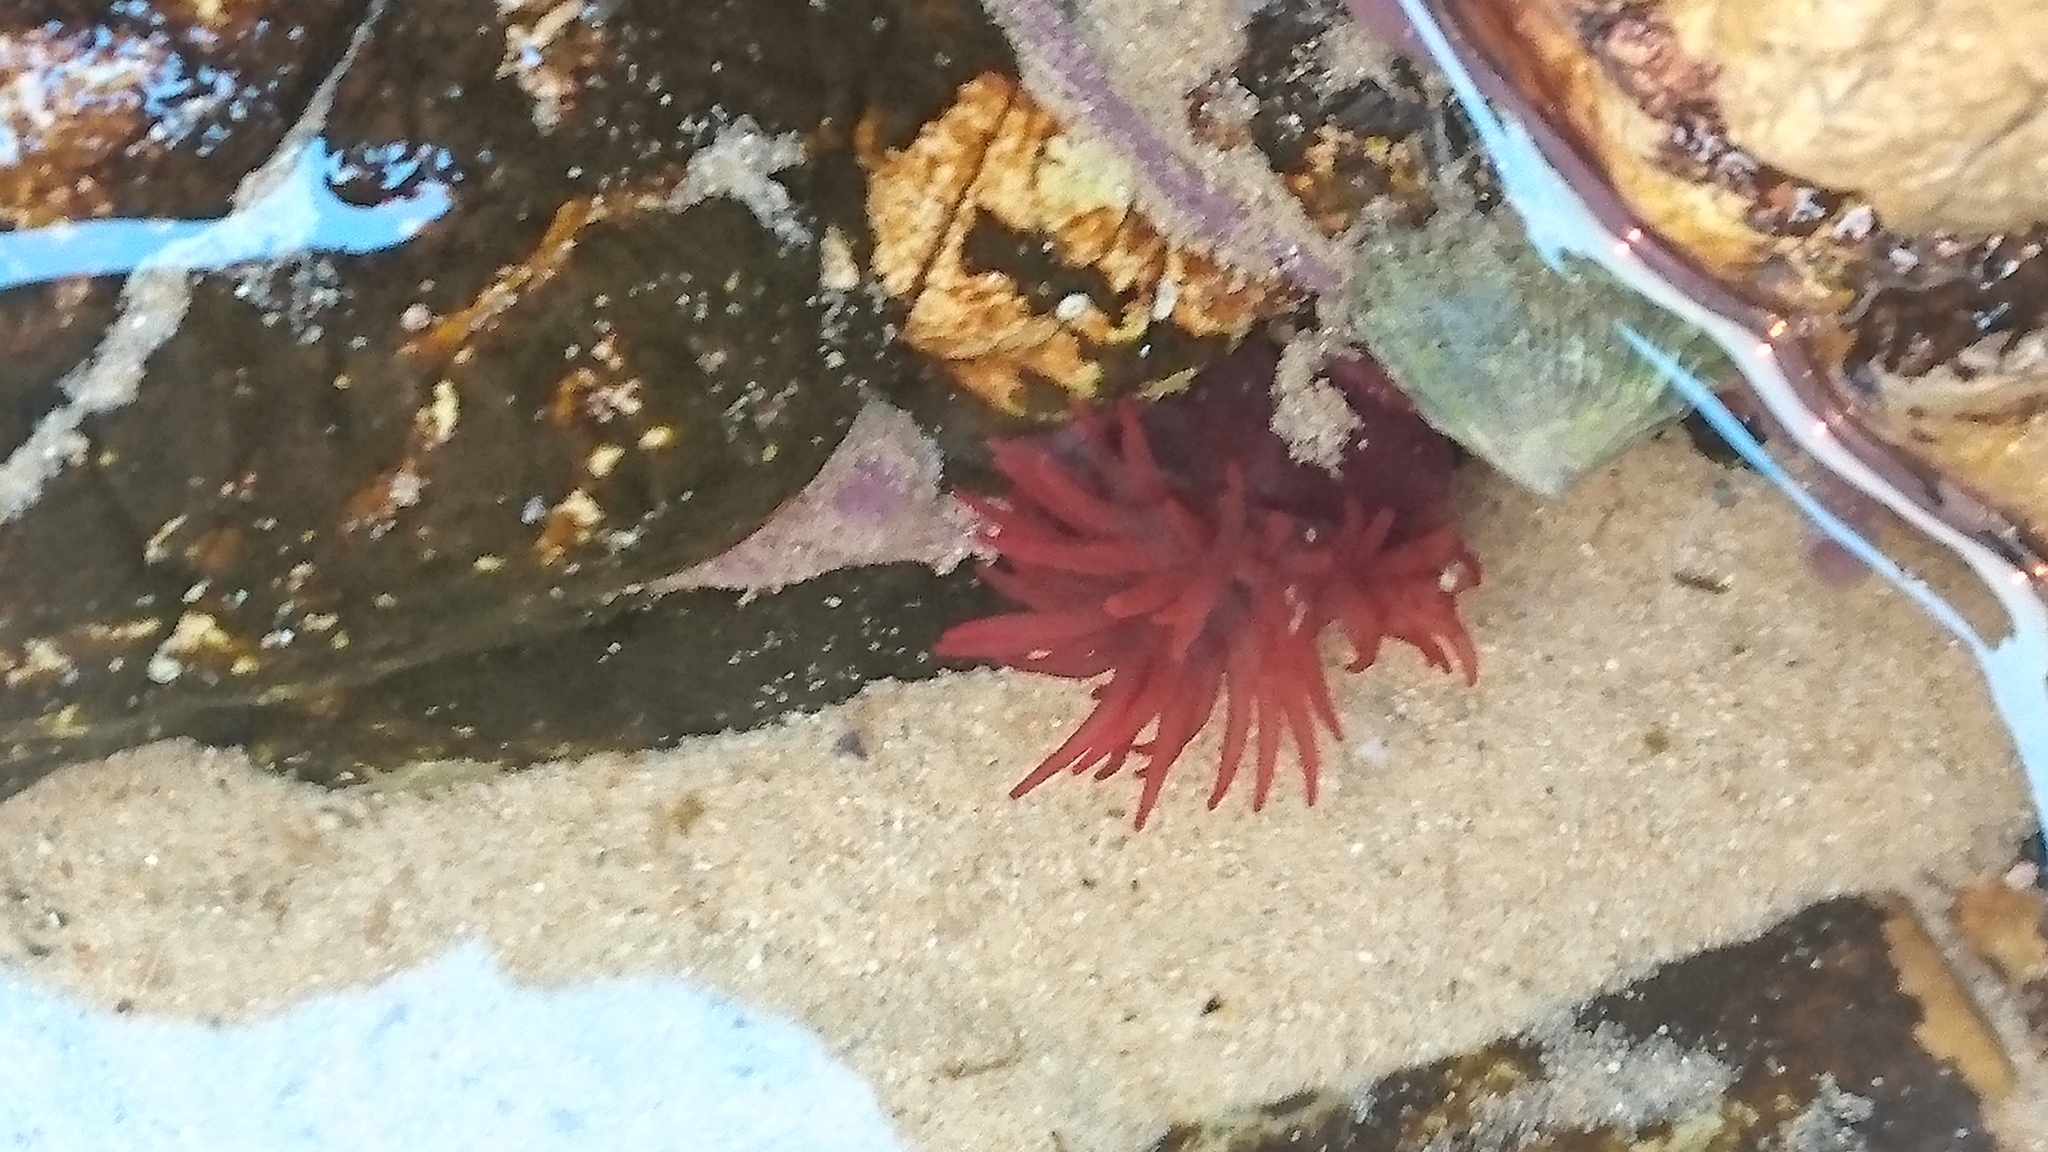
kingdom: Animalia
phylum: Cnidaria
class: Anthozoa
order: Actiniaria
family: Actiniidae
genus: Actinia
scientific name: Actinia tenebrosa
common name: Waratah anemone
